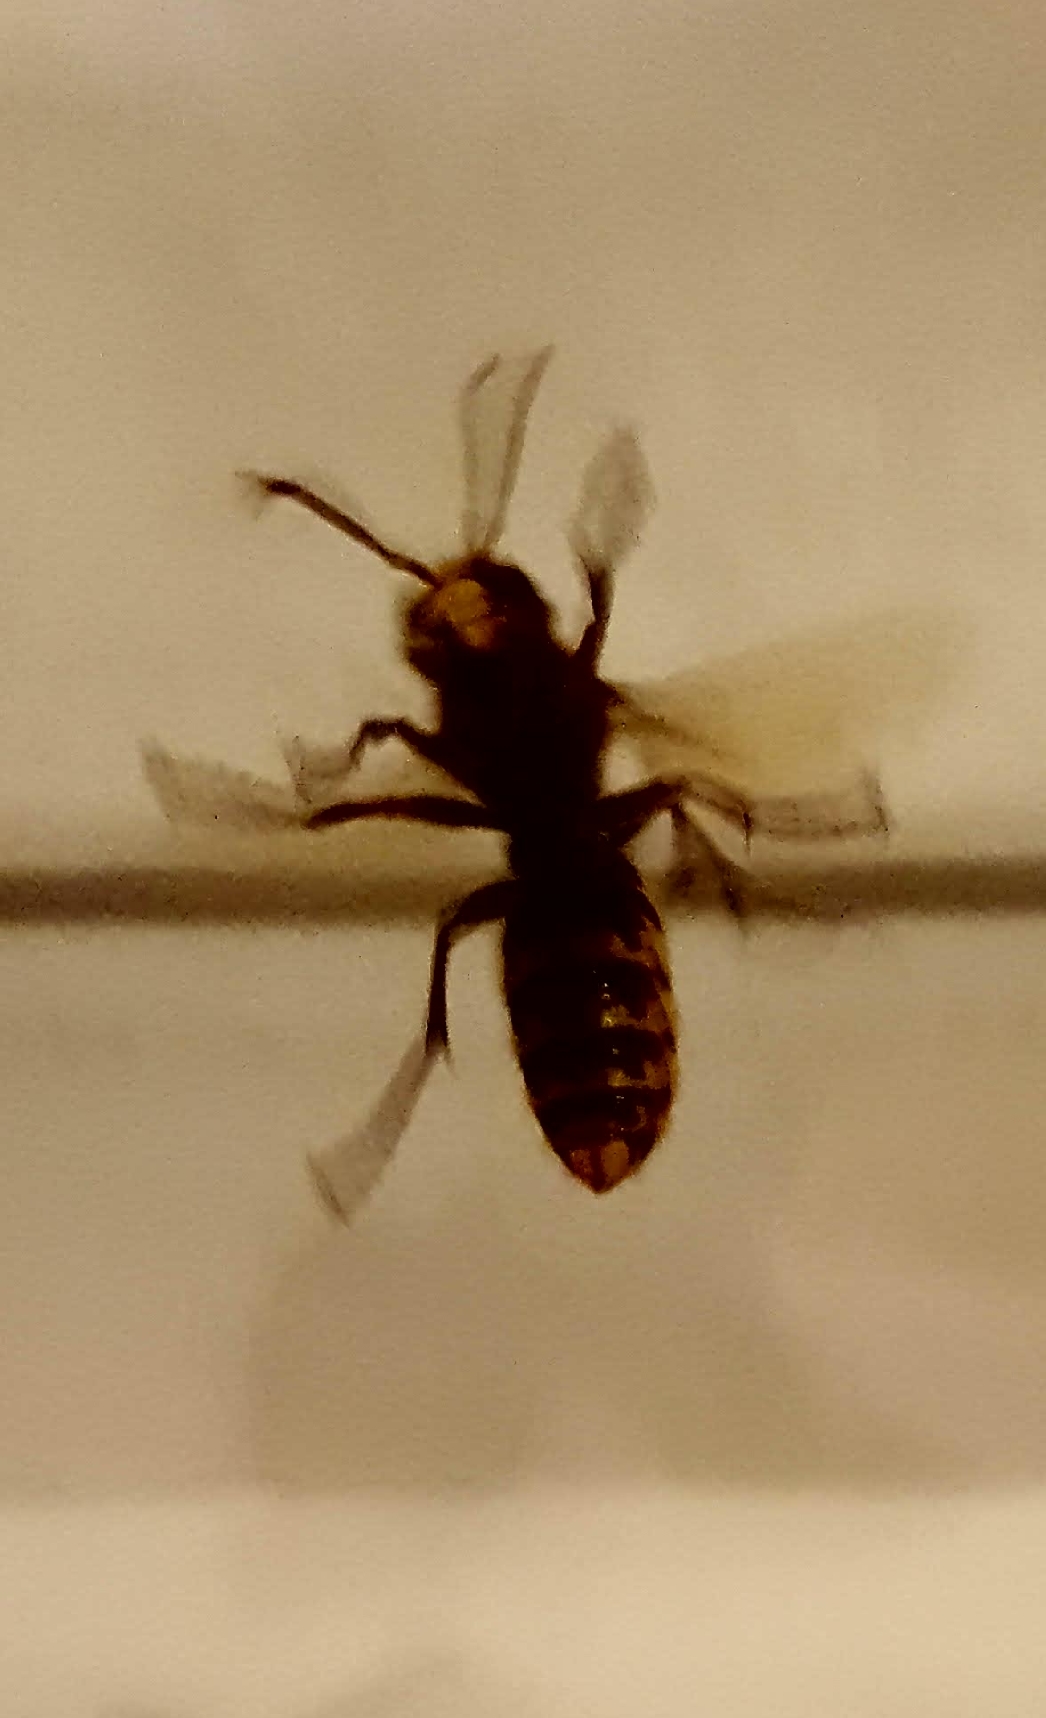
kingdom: Animalia
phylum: Arthropoda
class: Insecta
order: Hymenoptera
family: Vespidae
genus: Vespa
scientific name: Vespa crabro
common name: Hornet
